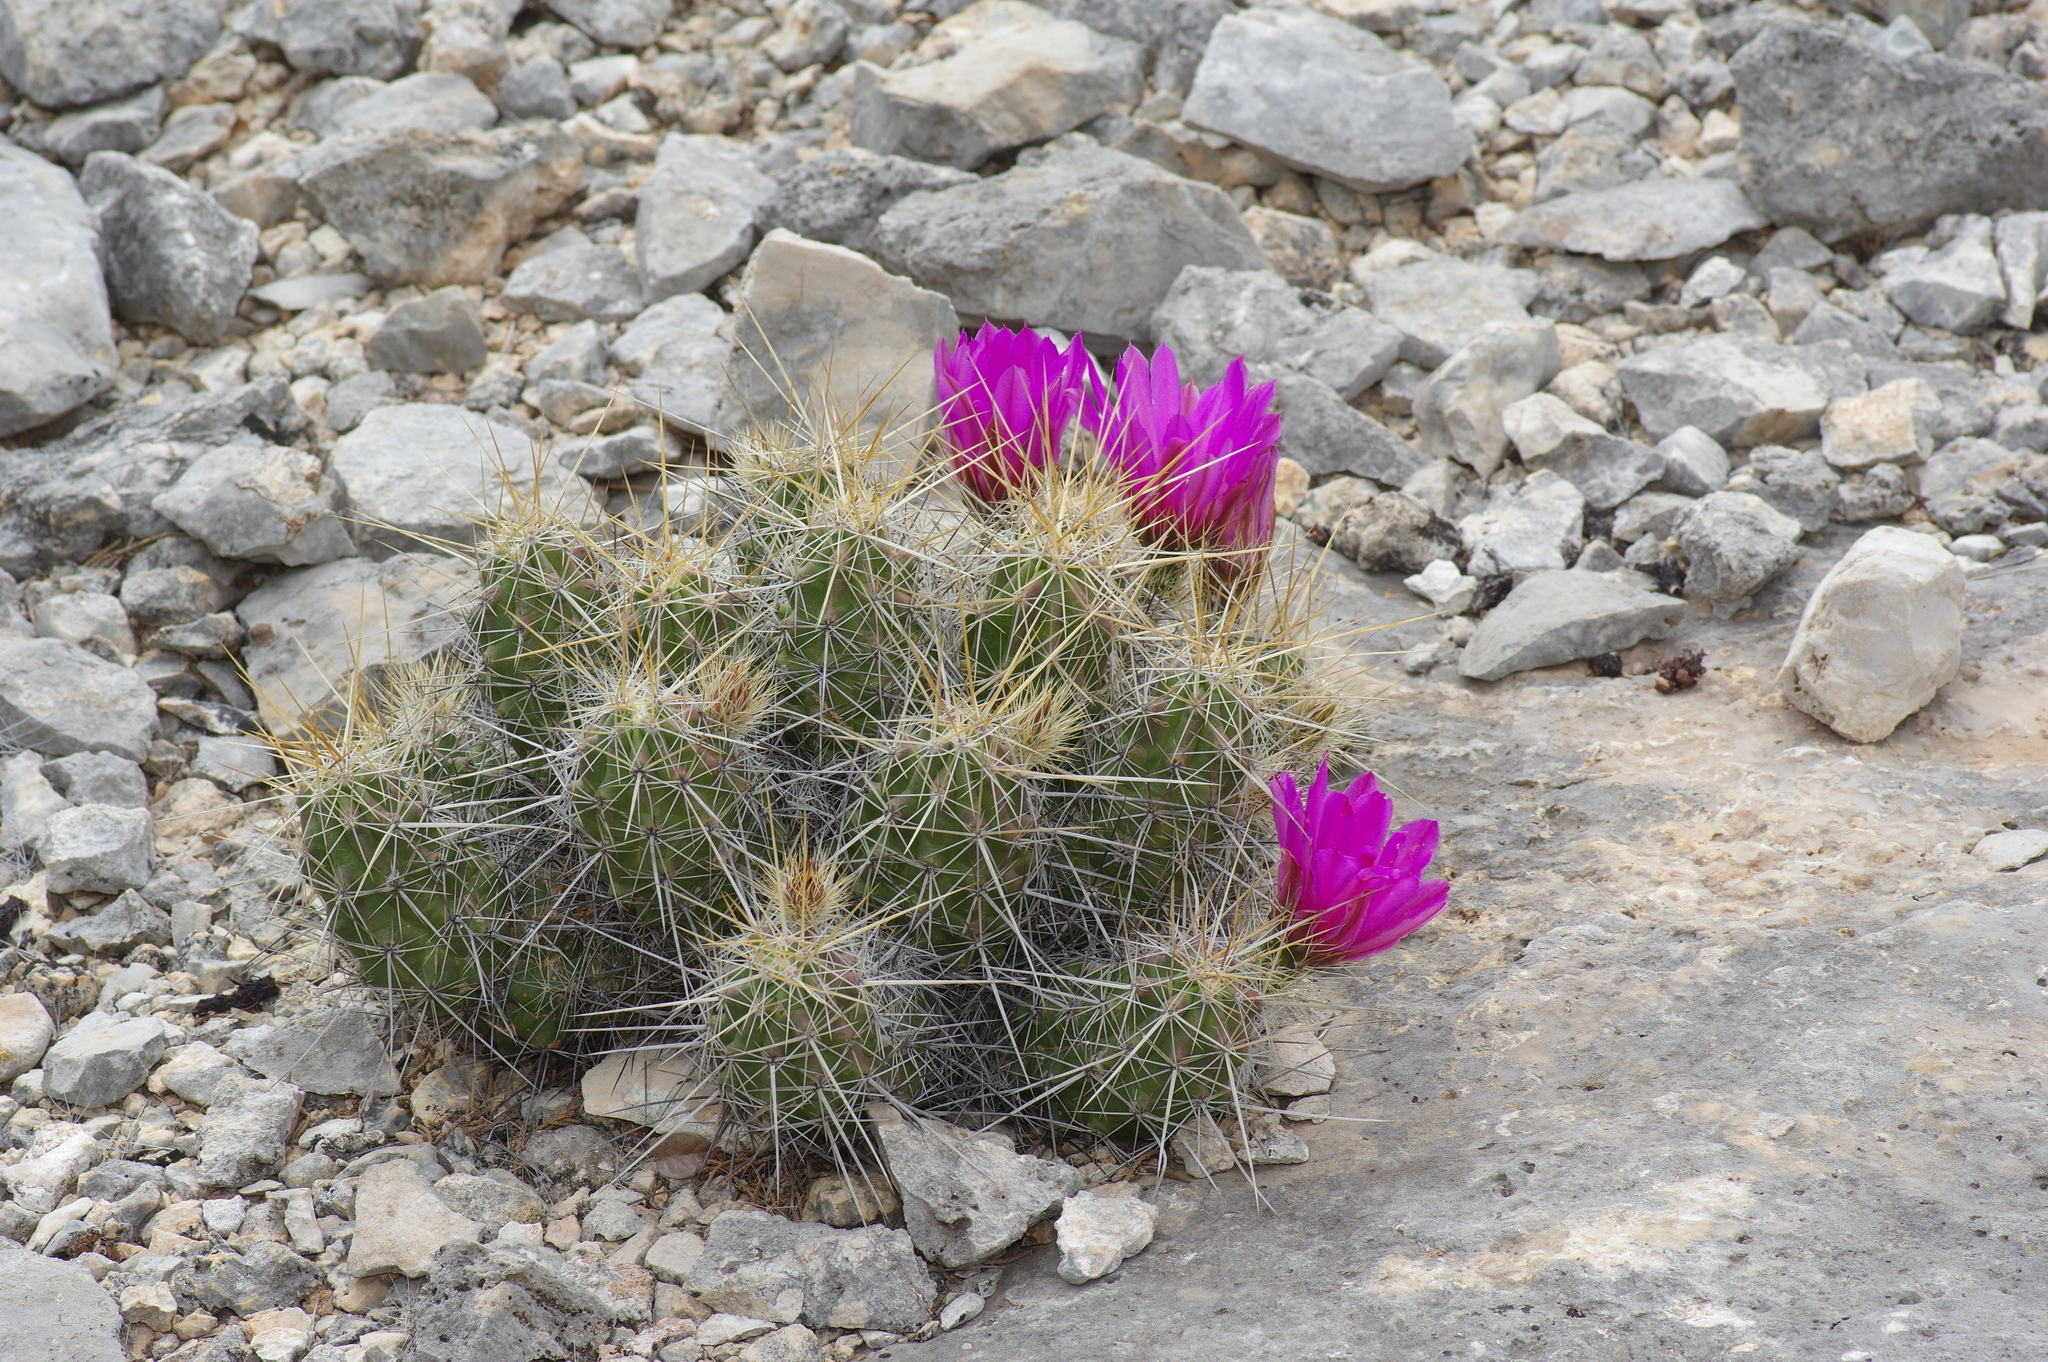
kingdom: Plantae
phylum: Tracheophyta
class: Magnoliopsida
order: Caryophyllales
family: Cactaceae
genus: Echinocereus
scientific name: Echinocereus enneacanthus
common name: Pitaya
